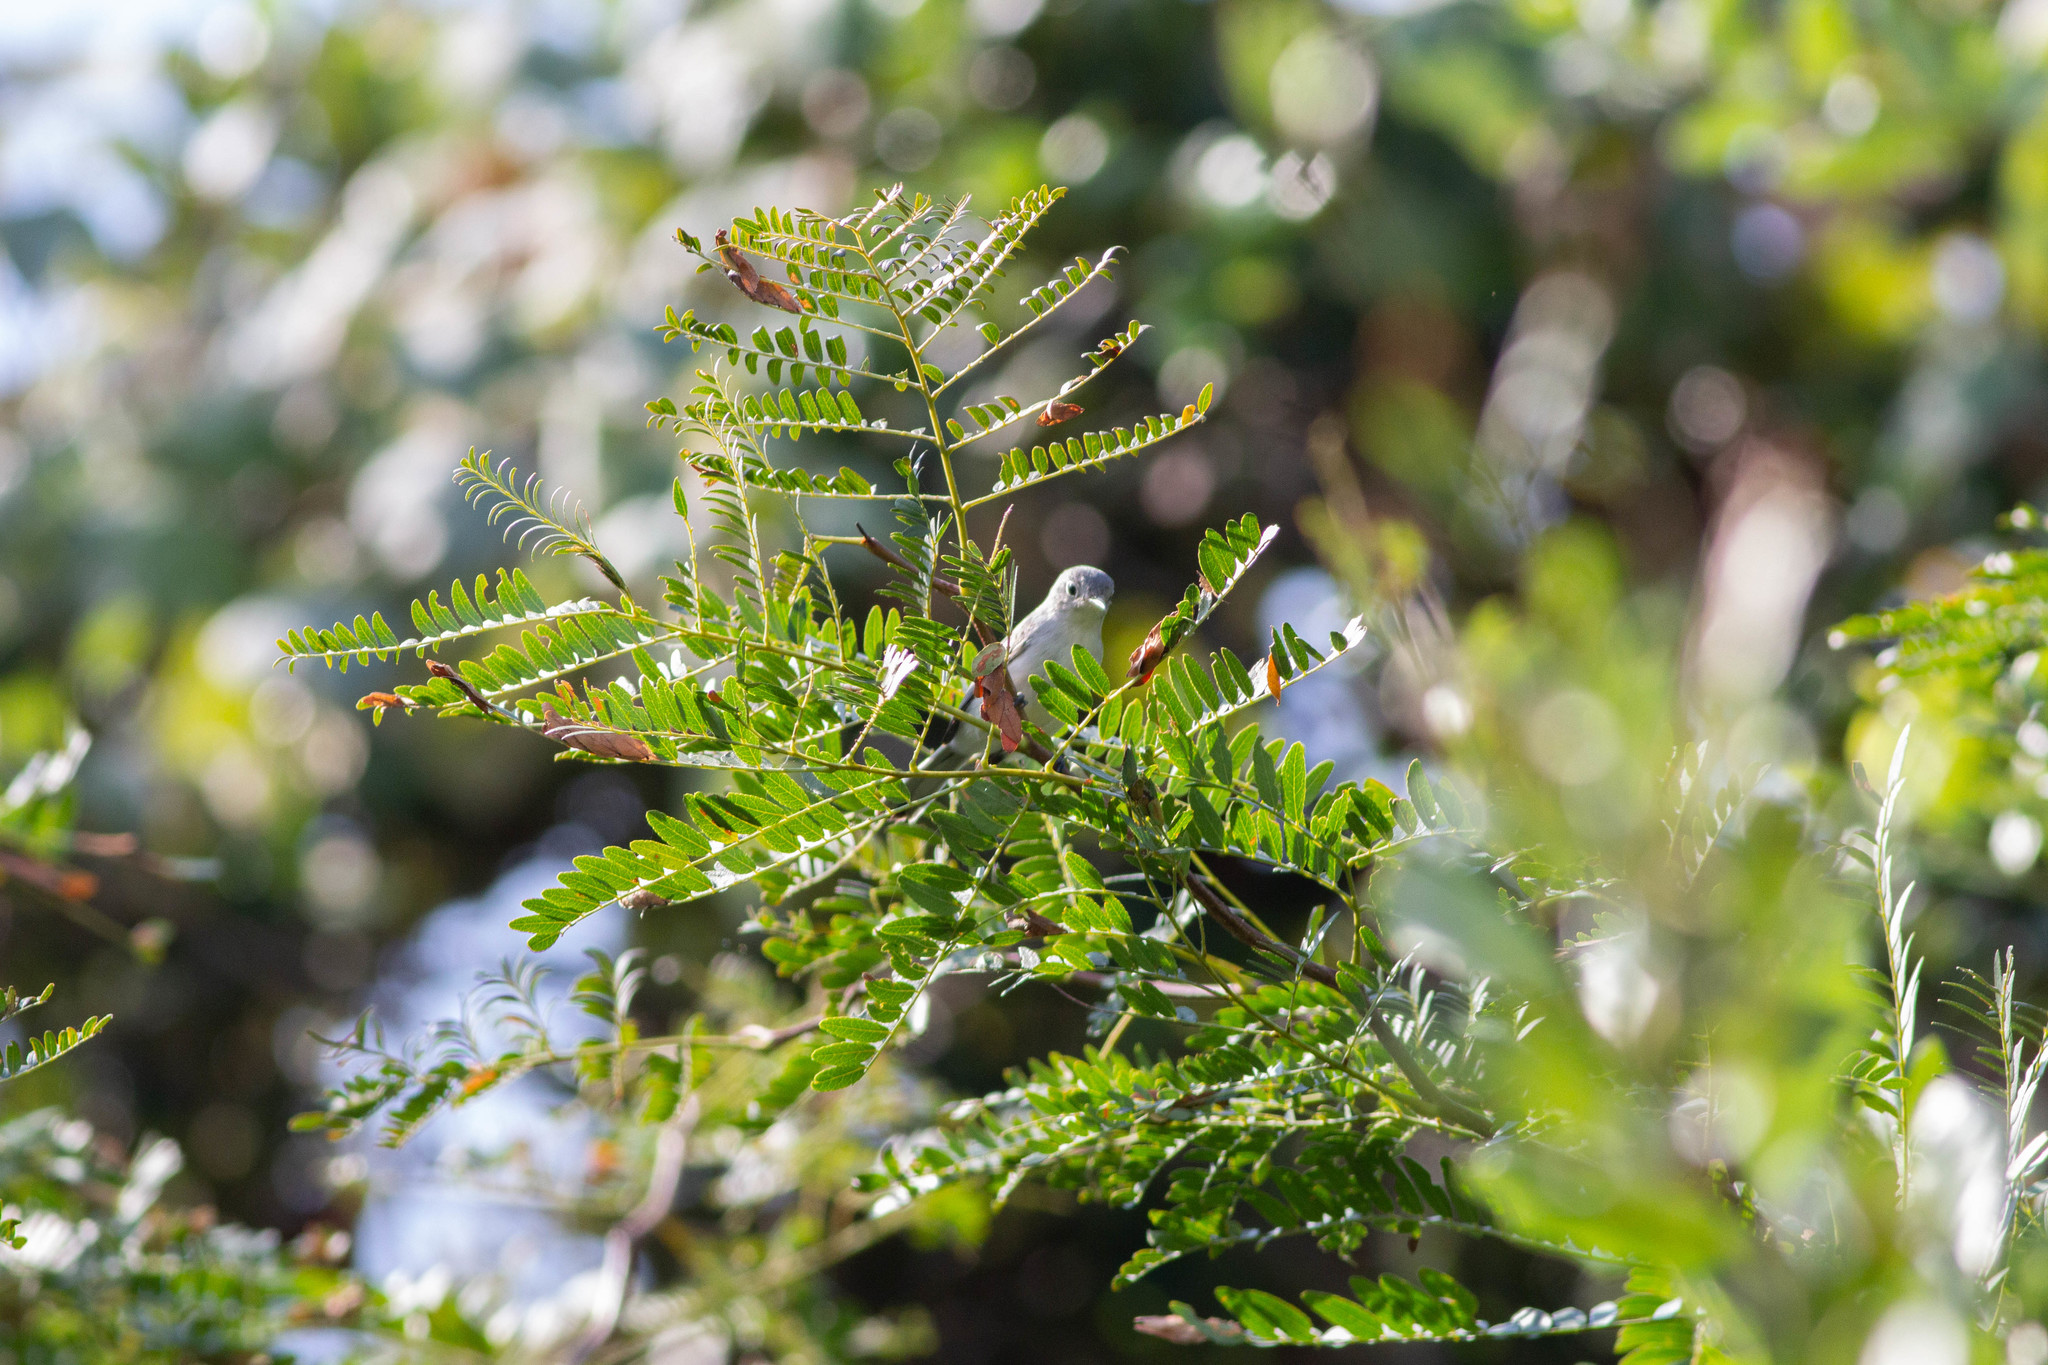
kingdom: Animalia
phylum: Chordata
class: Aves
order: Passeriformes
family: Polioptilidae
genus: Polioptila
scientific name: Polioptila caerulea
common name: Blue-gray gnatcatcher
